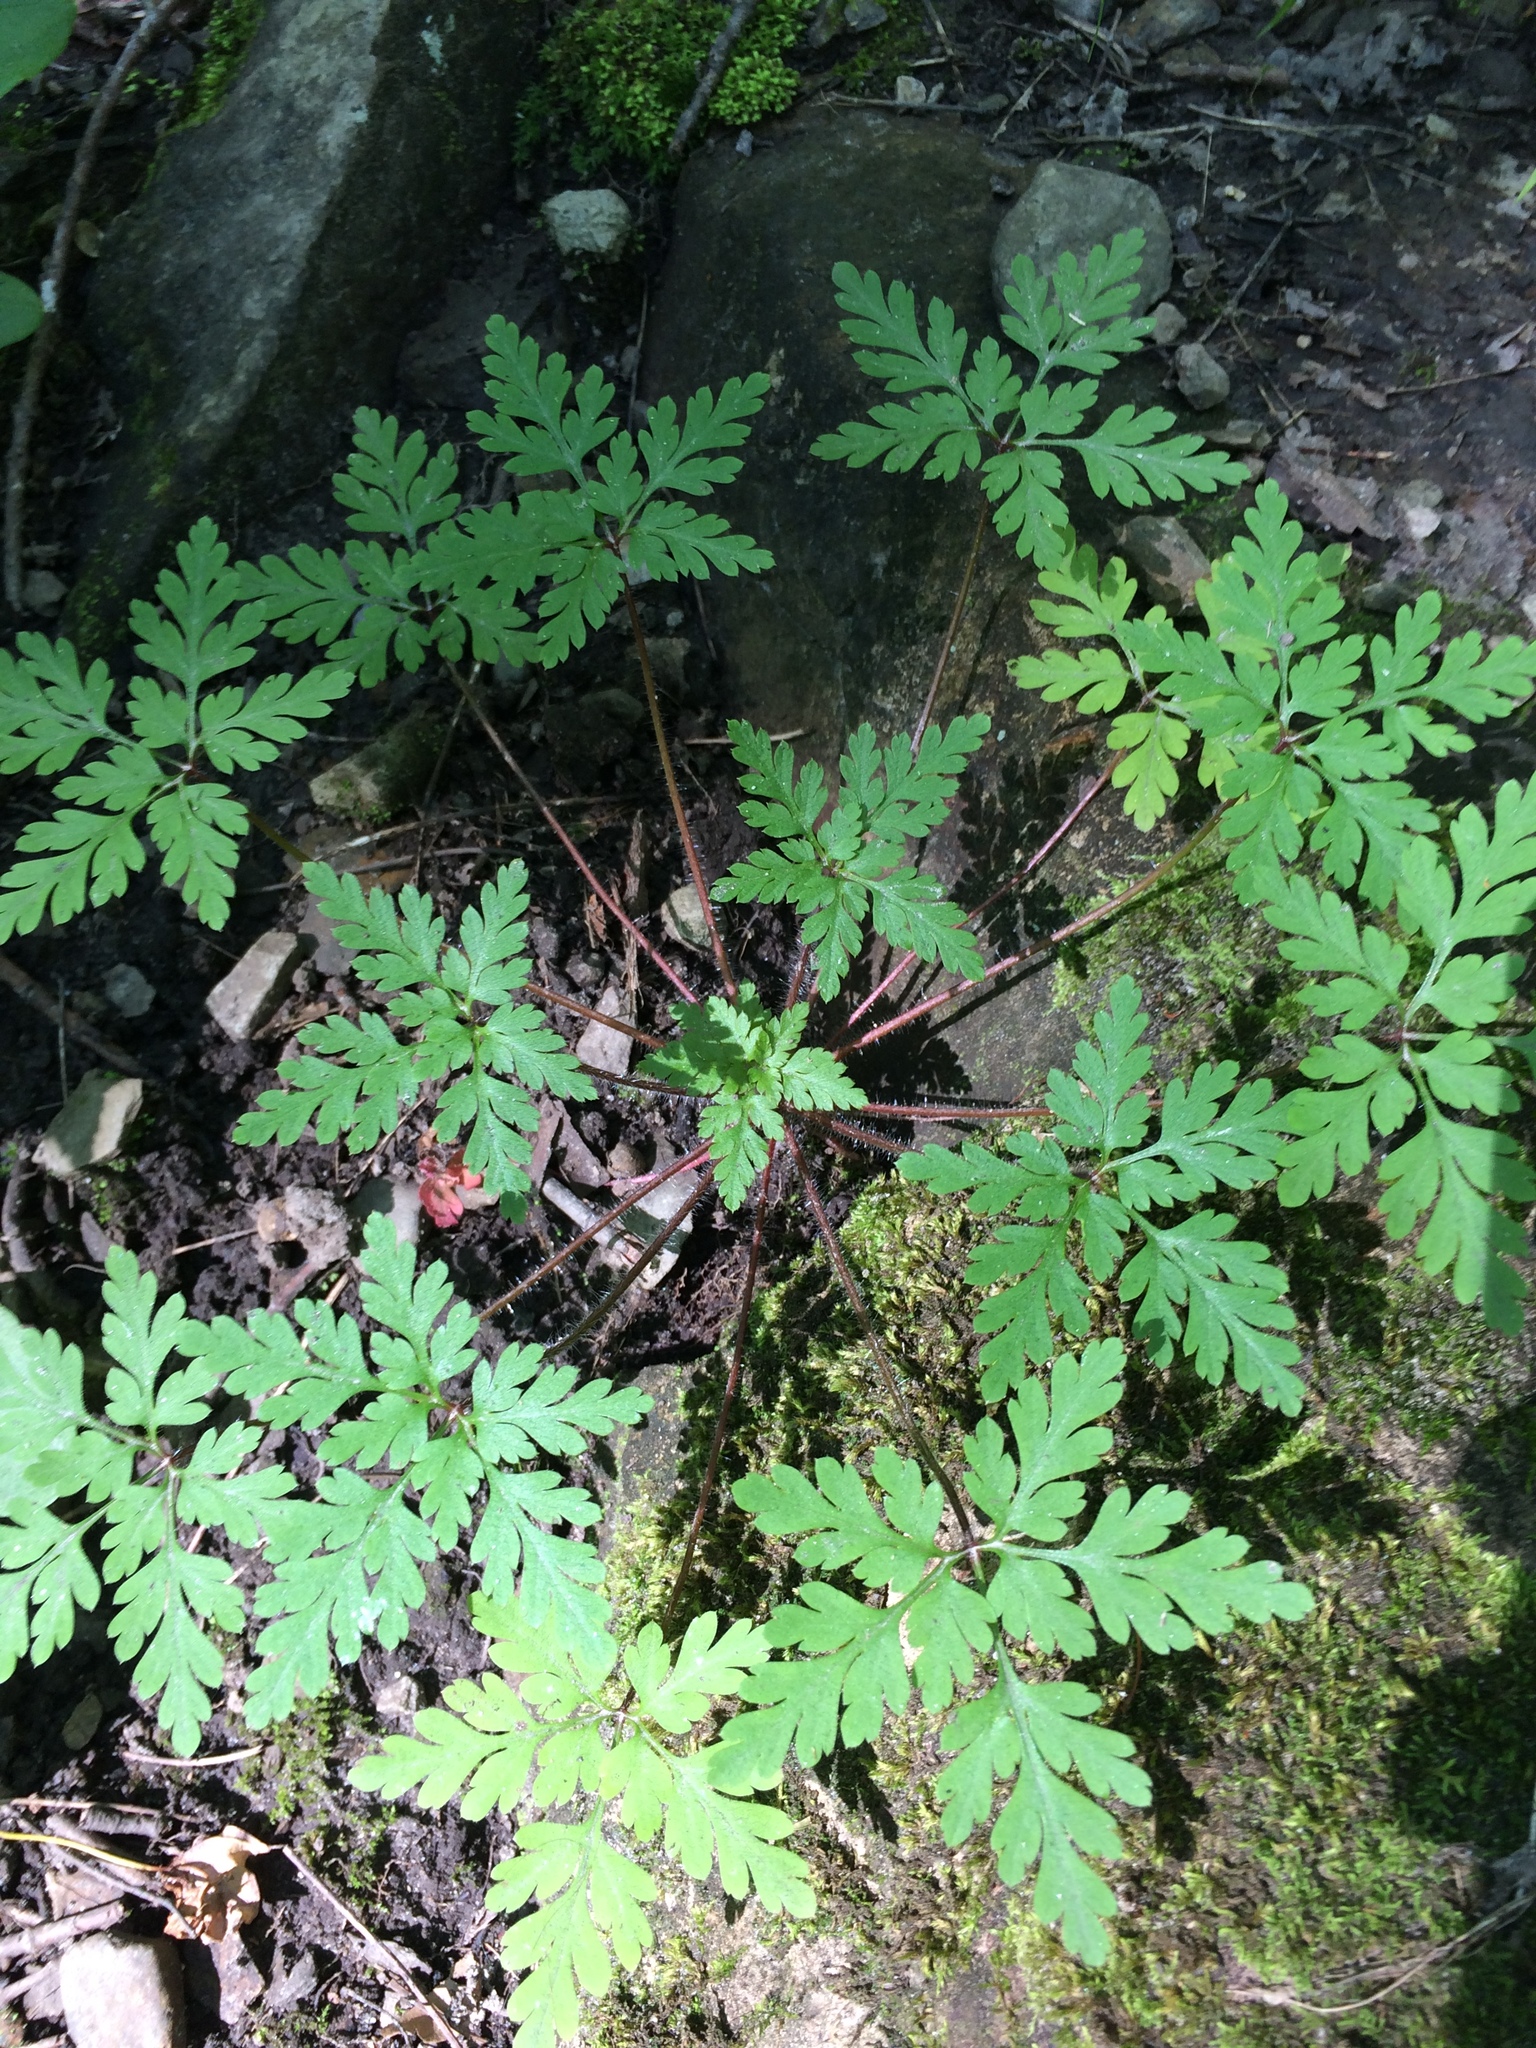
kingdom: Plantae
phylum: Tracheophyta
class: Magnoliopsida
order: Geraniales
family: Geraniaceae
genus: Geranium
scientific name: Geranium robertianum
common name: Herb-robert
